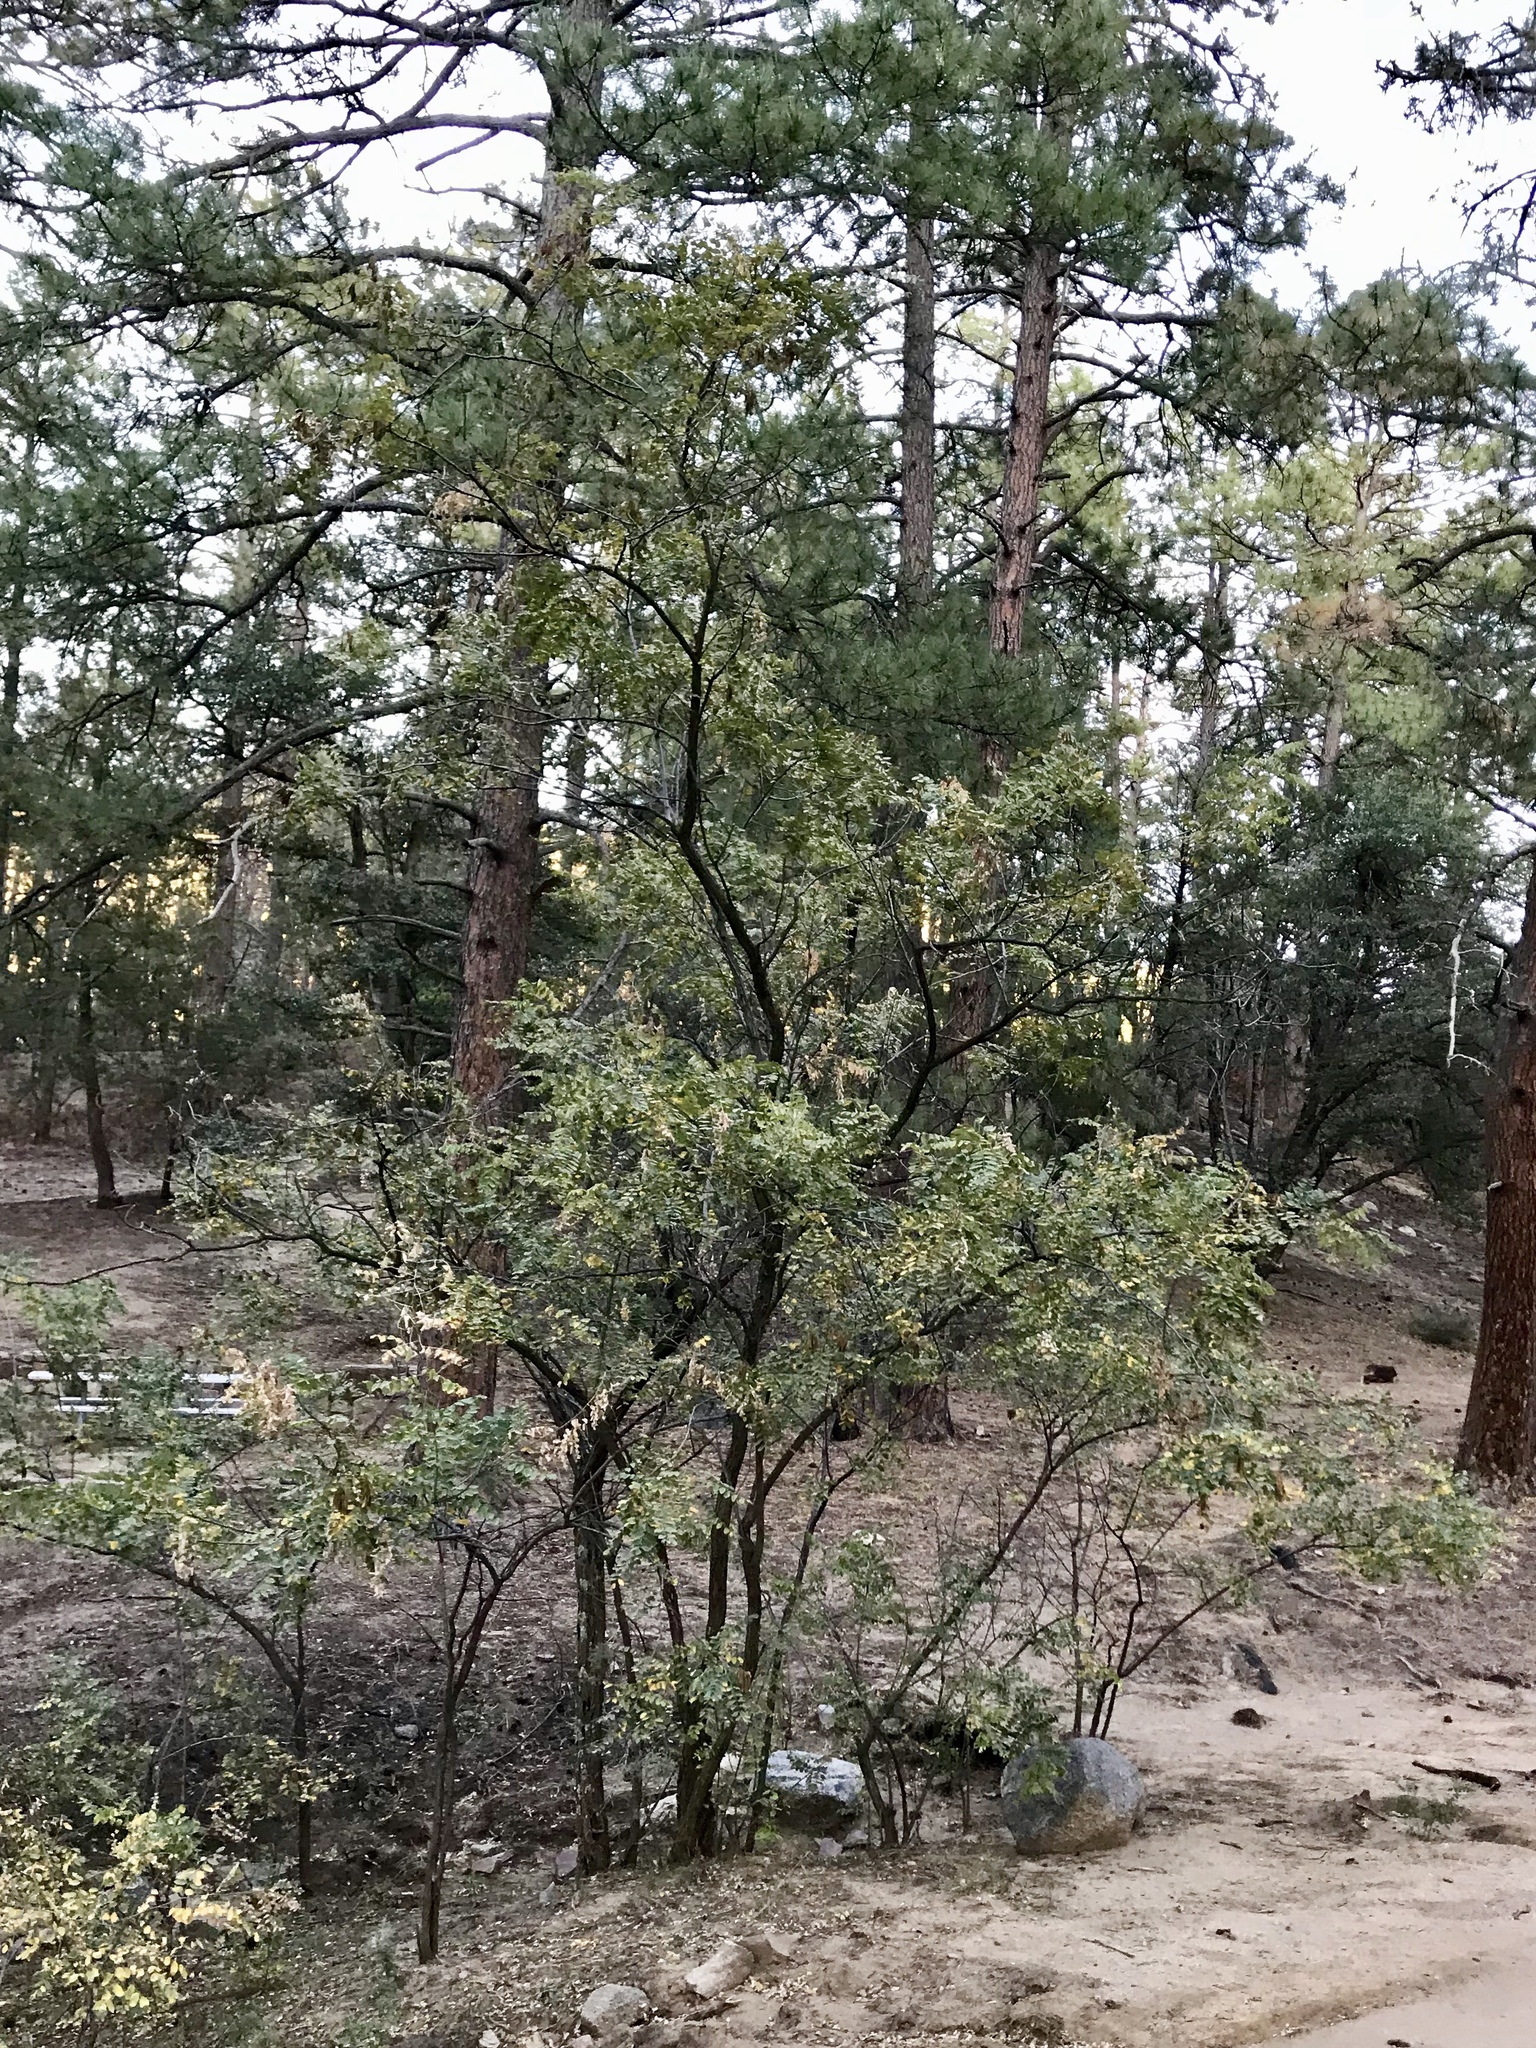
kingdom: Plantae
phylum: Tracheophyta
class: Magnoliopsida
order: Fabales
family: Fabaceae
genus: Robinia
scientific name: Robinia neomexicana
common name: New mexico locust
